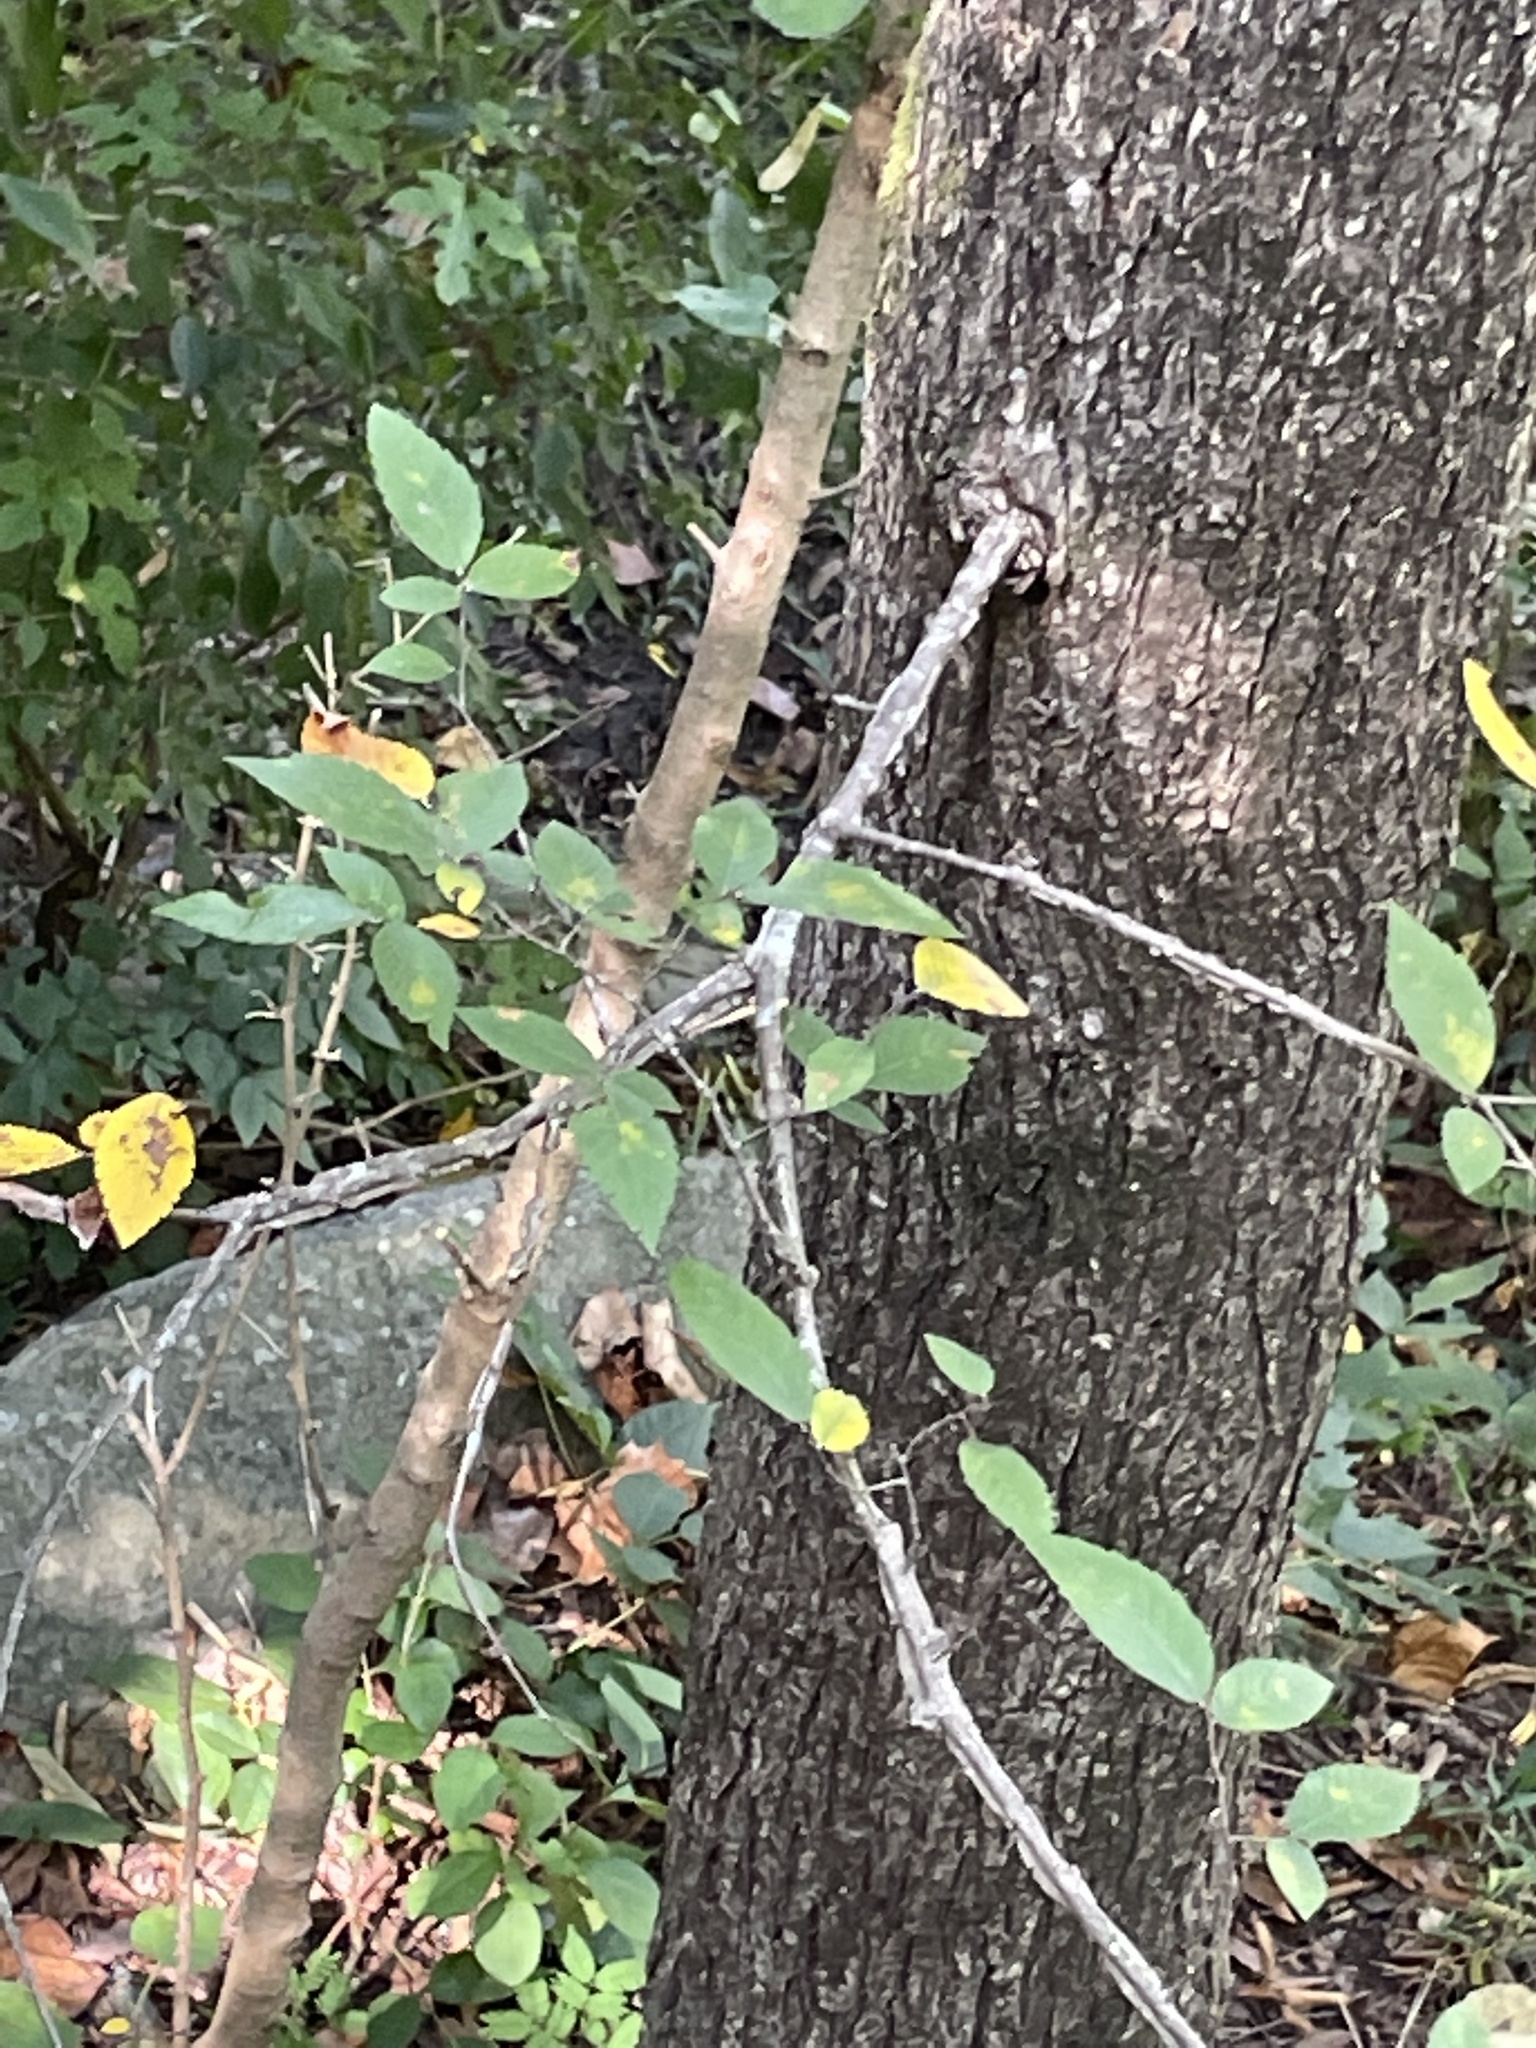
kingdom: Plantae
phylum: Tracheophyta
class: Magnoliopsida
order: Rosales
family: Ulmaceae
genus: Ulmus
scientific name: Ulmus alata
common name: Winged elm
